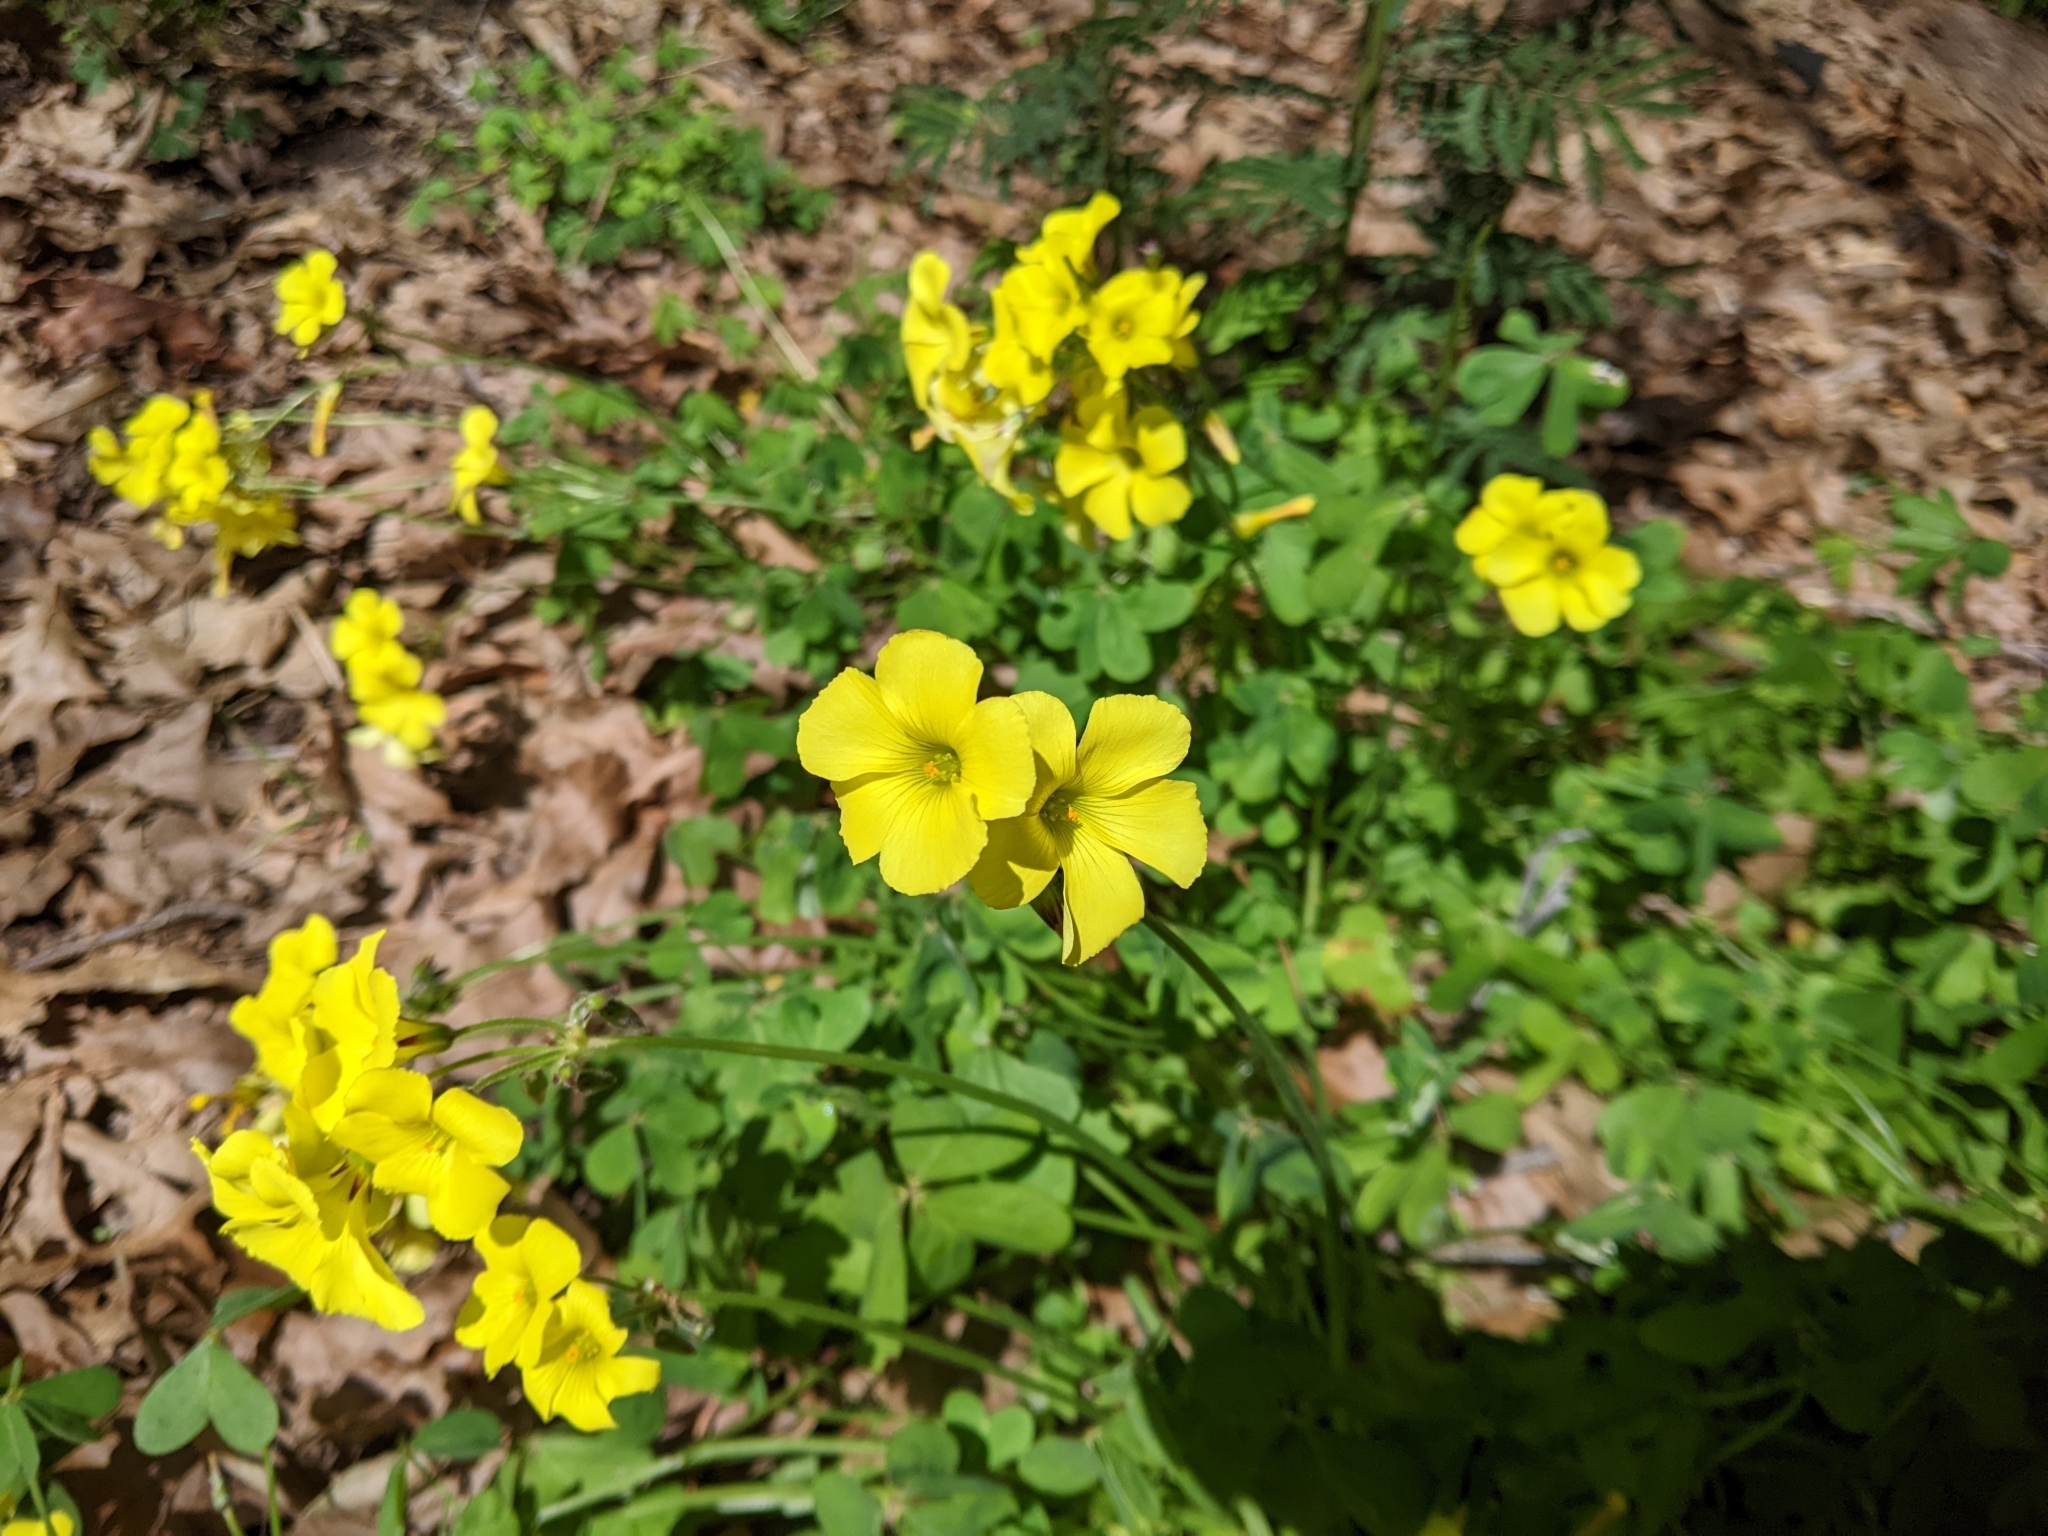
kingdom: Plantae
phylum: Tracheophyta
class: Magnoliopsida
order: Oxalidales
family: Oxalidaceae
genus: Oxalis
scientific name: Oxalis pes-caprae
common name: Bermuda-buttercup
